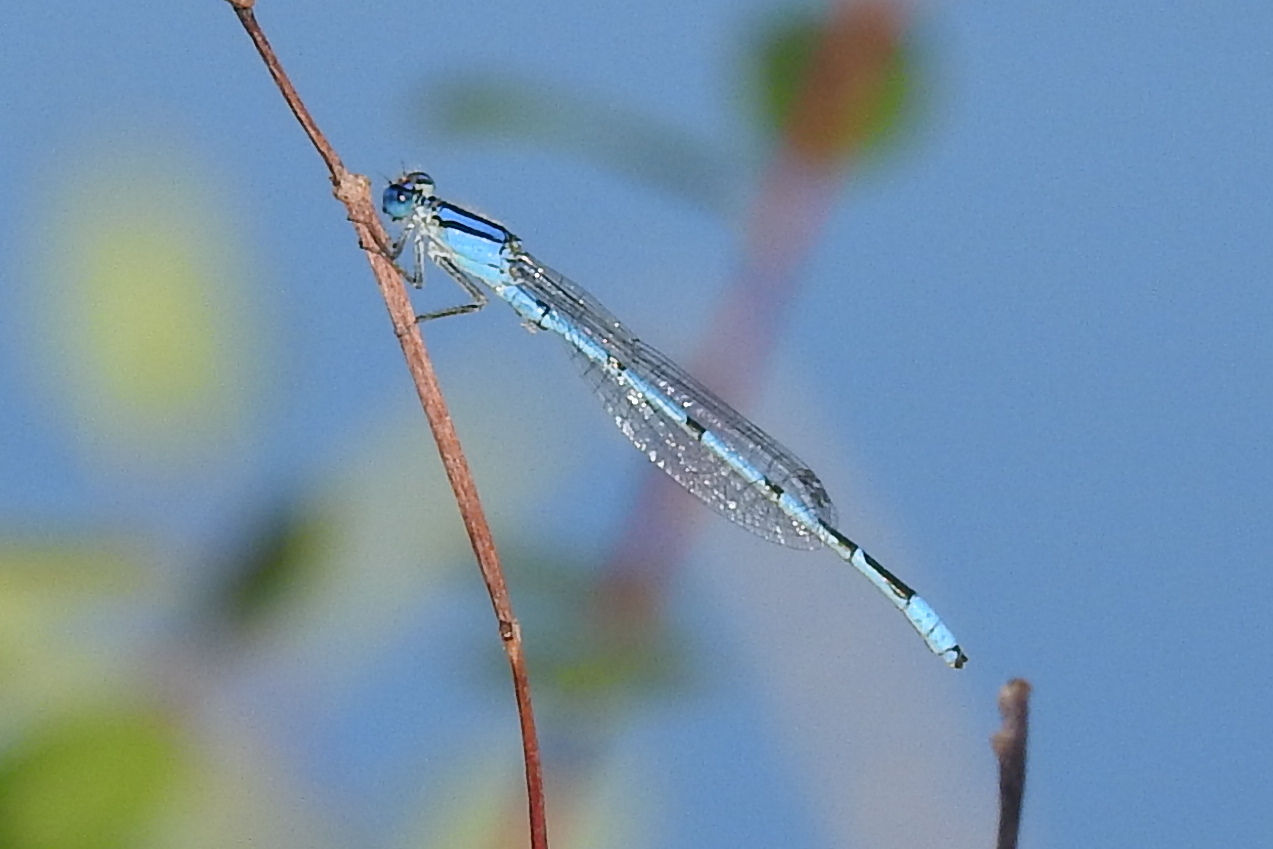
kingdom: Animalia
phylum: Arthropoda
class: Insecta
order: Odonata
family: Coenagrionidae
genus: Enallagma
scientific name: Enallagma civile
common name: Damselfly
